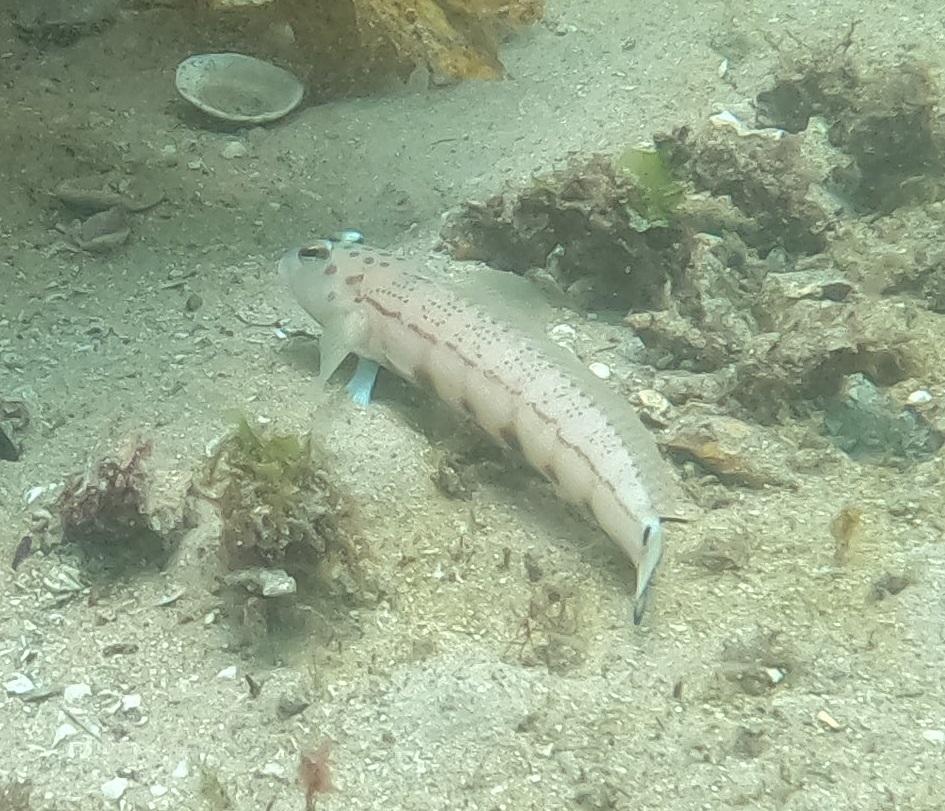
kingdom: Animalia
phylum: Chordata
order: Perciformes
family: Pinguipedidae
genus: Parapercis
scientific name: Parapercis ramsayi
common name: Ramsay's grubfish
